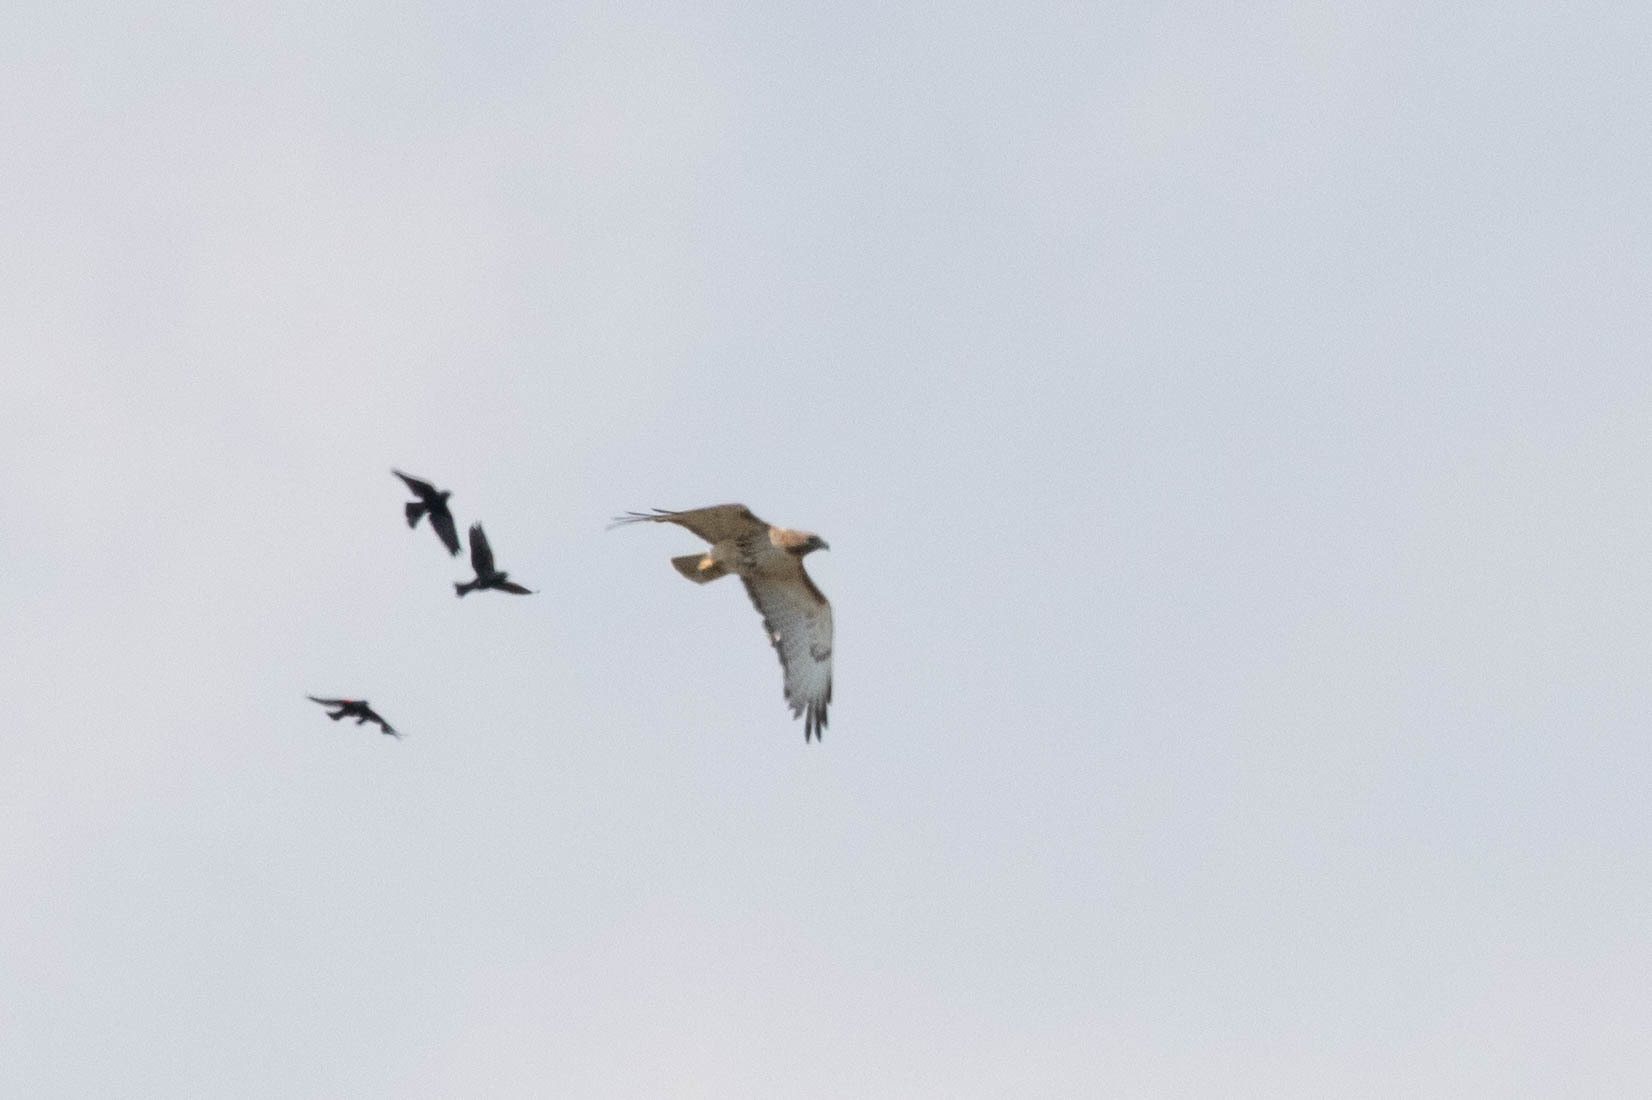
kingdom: Animalia
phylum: Chordata
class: Aves
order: Accipitriformes
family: Accipitridae
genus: Buteo
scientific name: Buteo jamaicensis
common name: Red-tailed hawk
